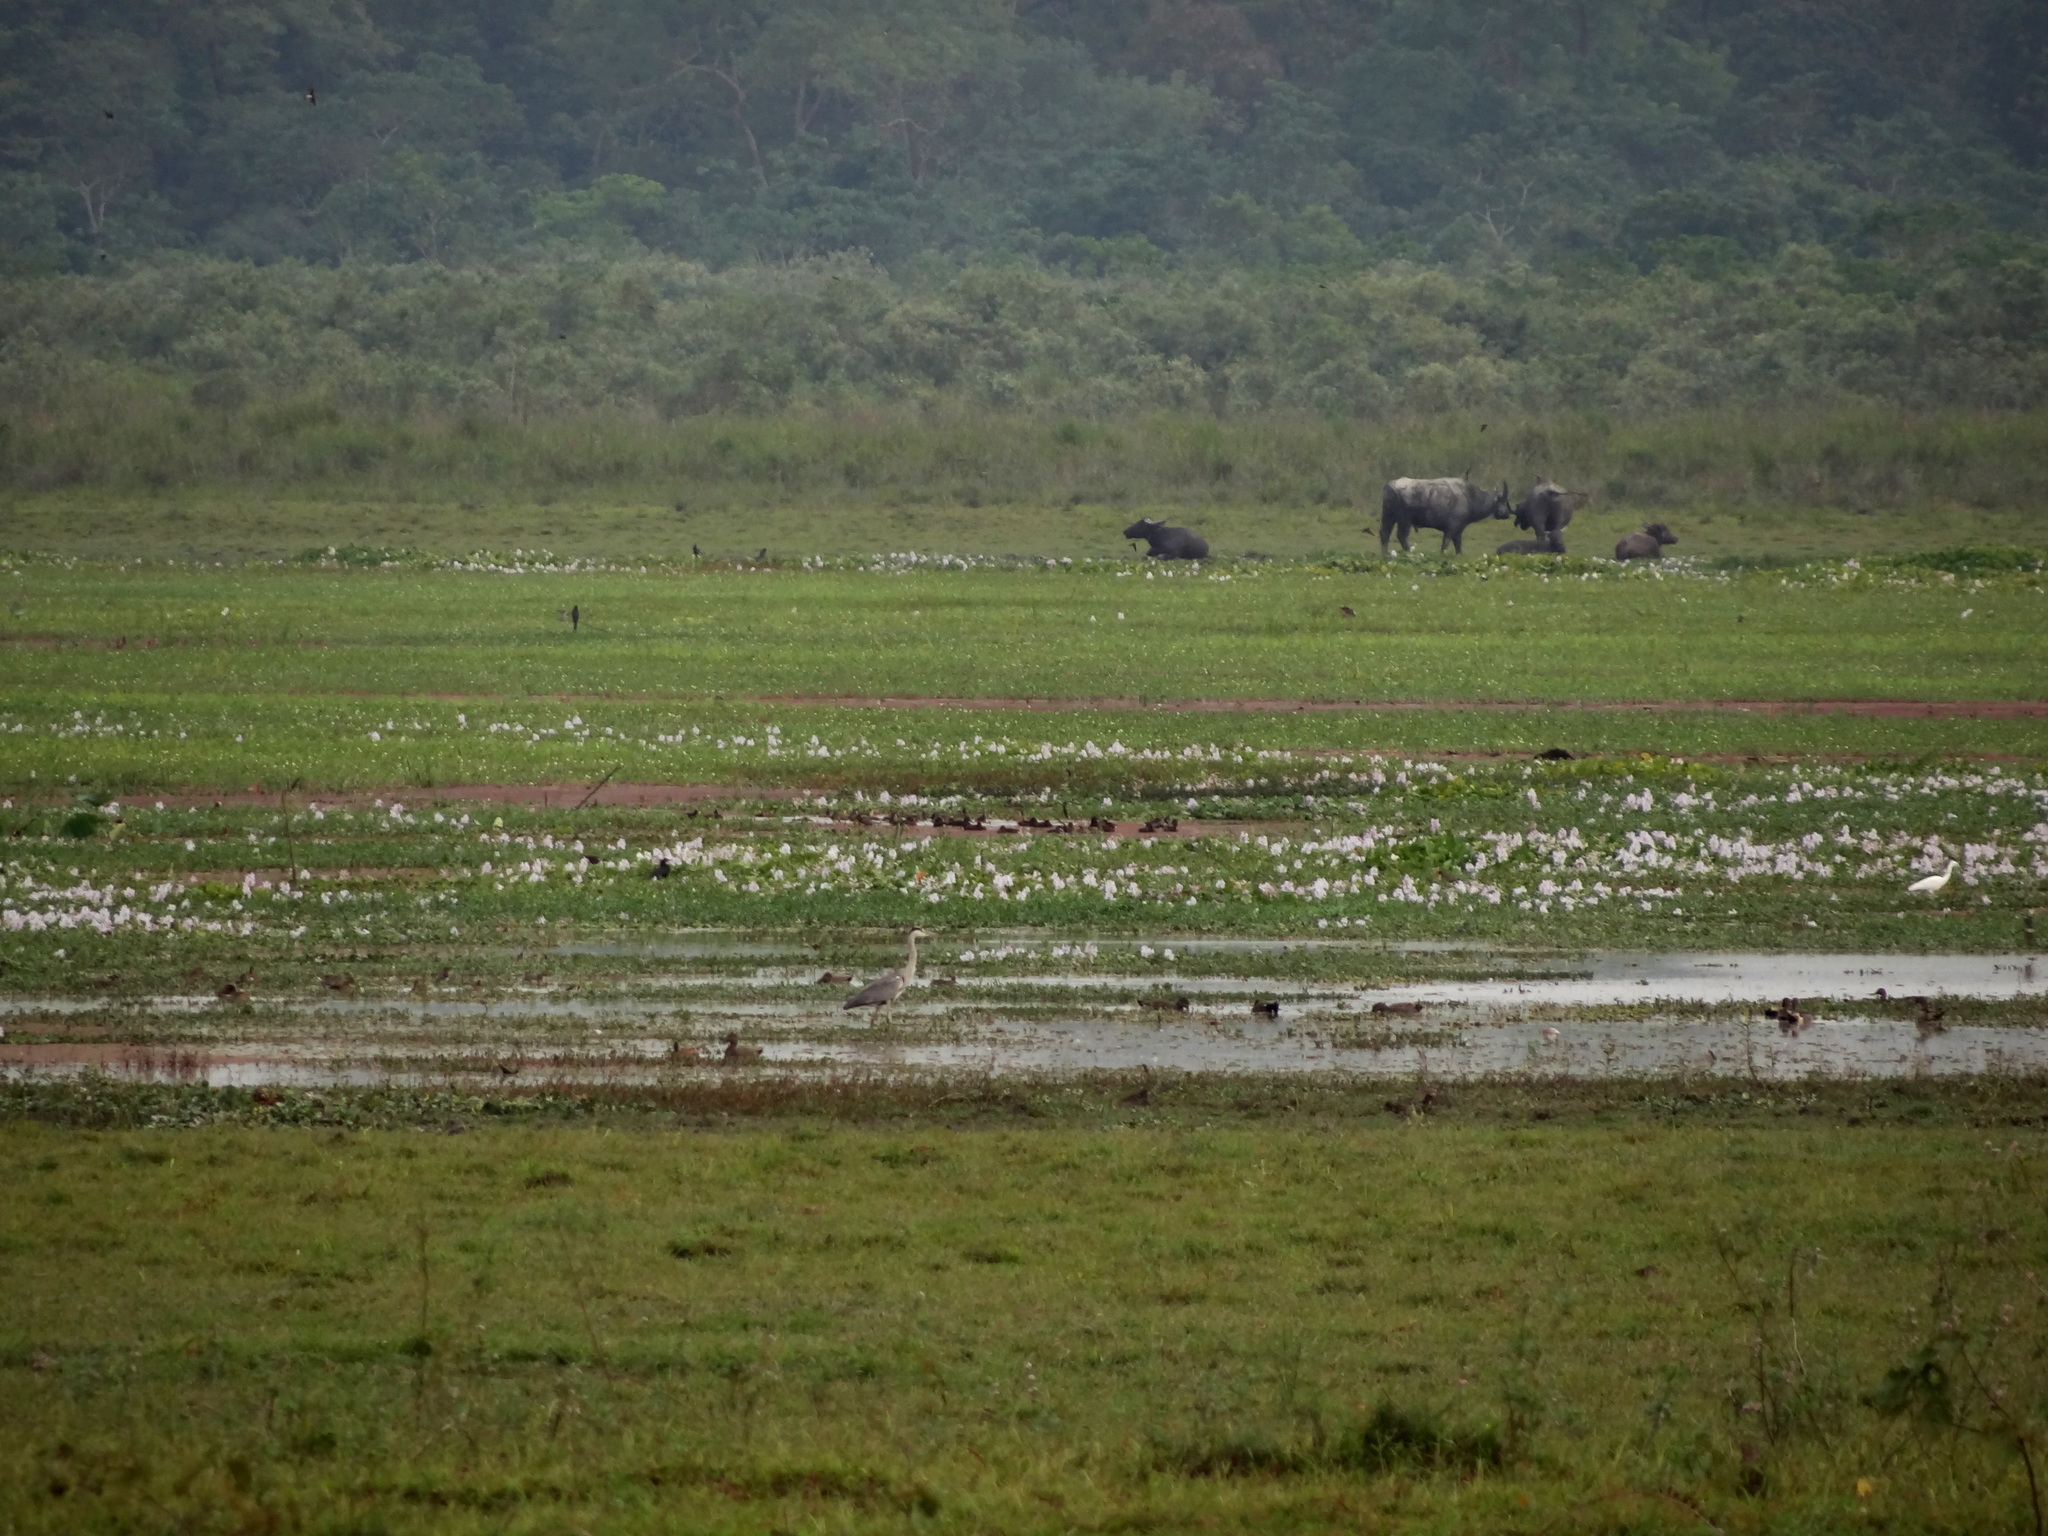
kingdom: Animalia
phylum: Chordata
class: Aves
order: Pelecaniformes
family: Ardeidae
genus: Ardea
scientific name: Ardea cinerea
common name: Grey heron
